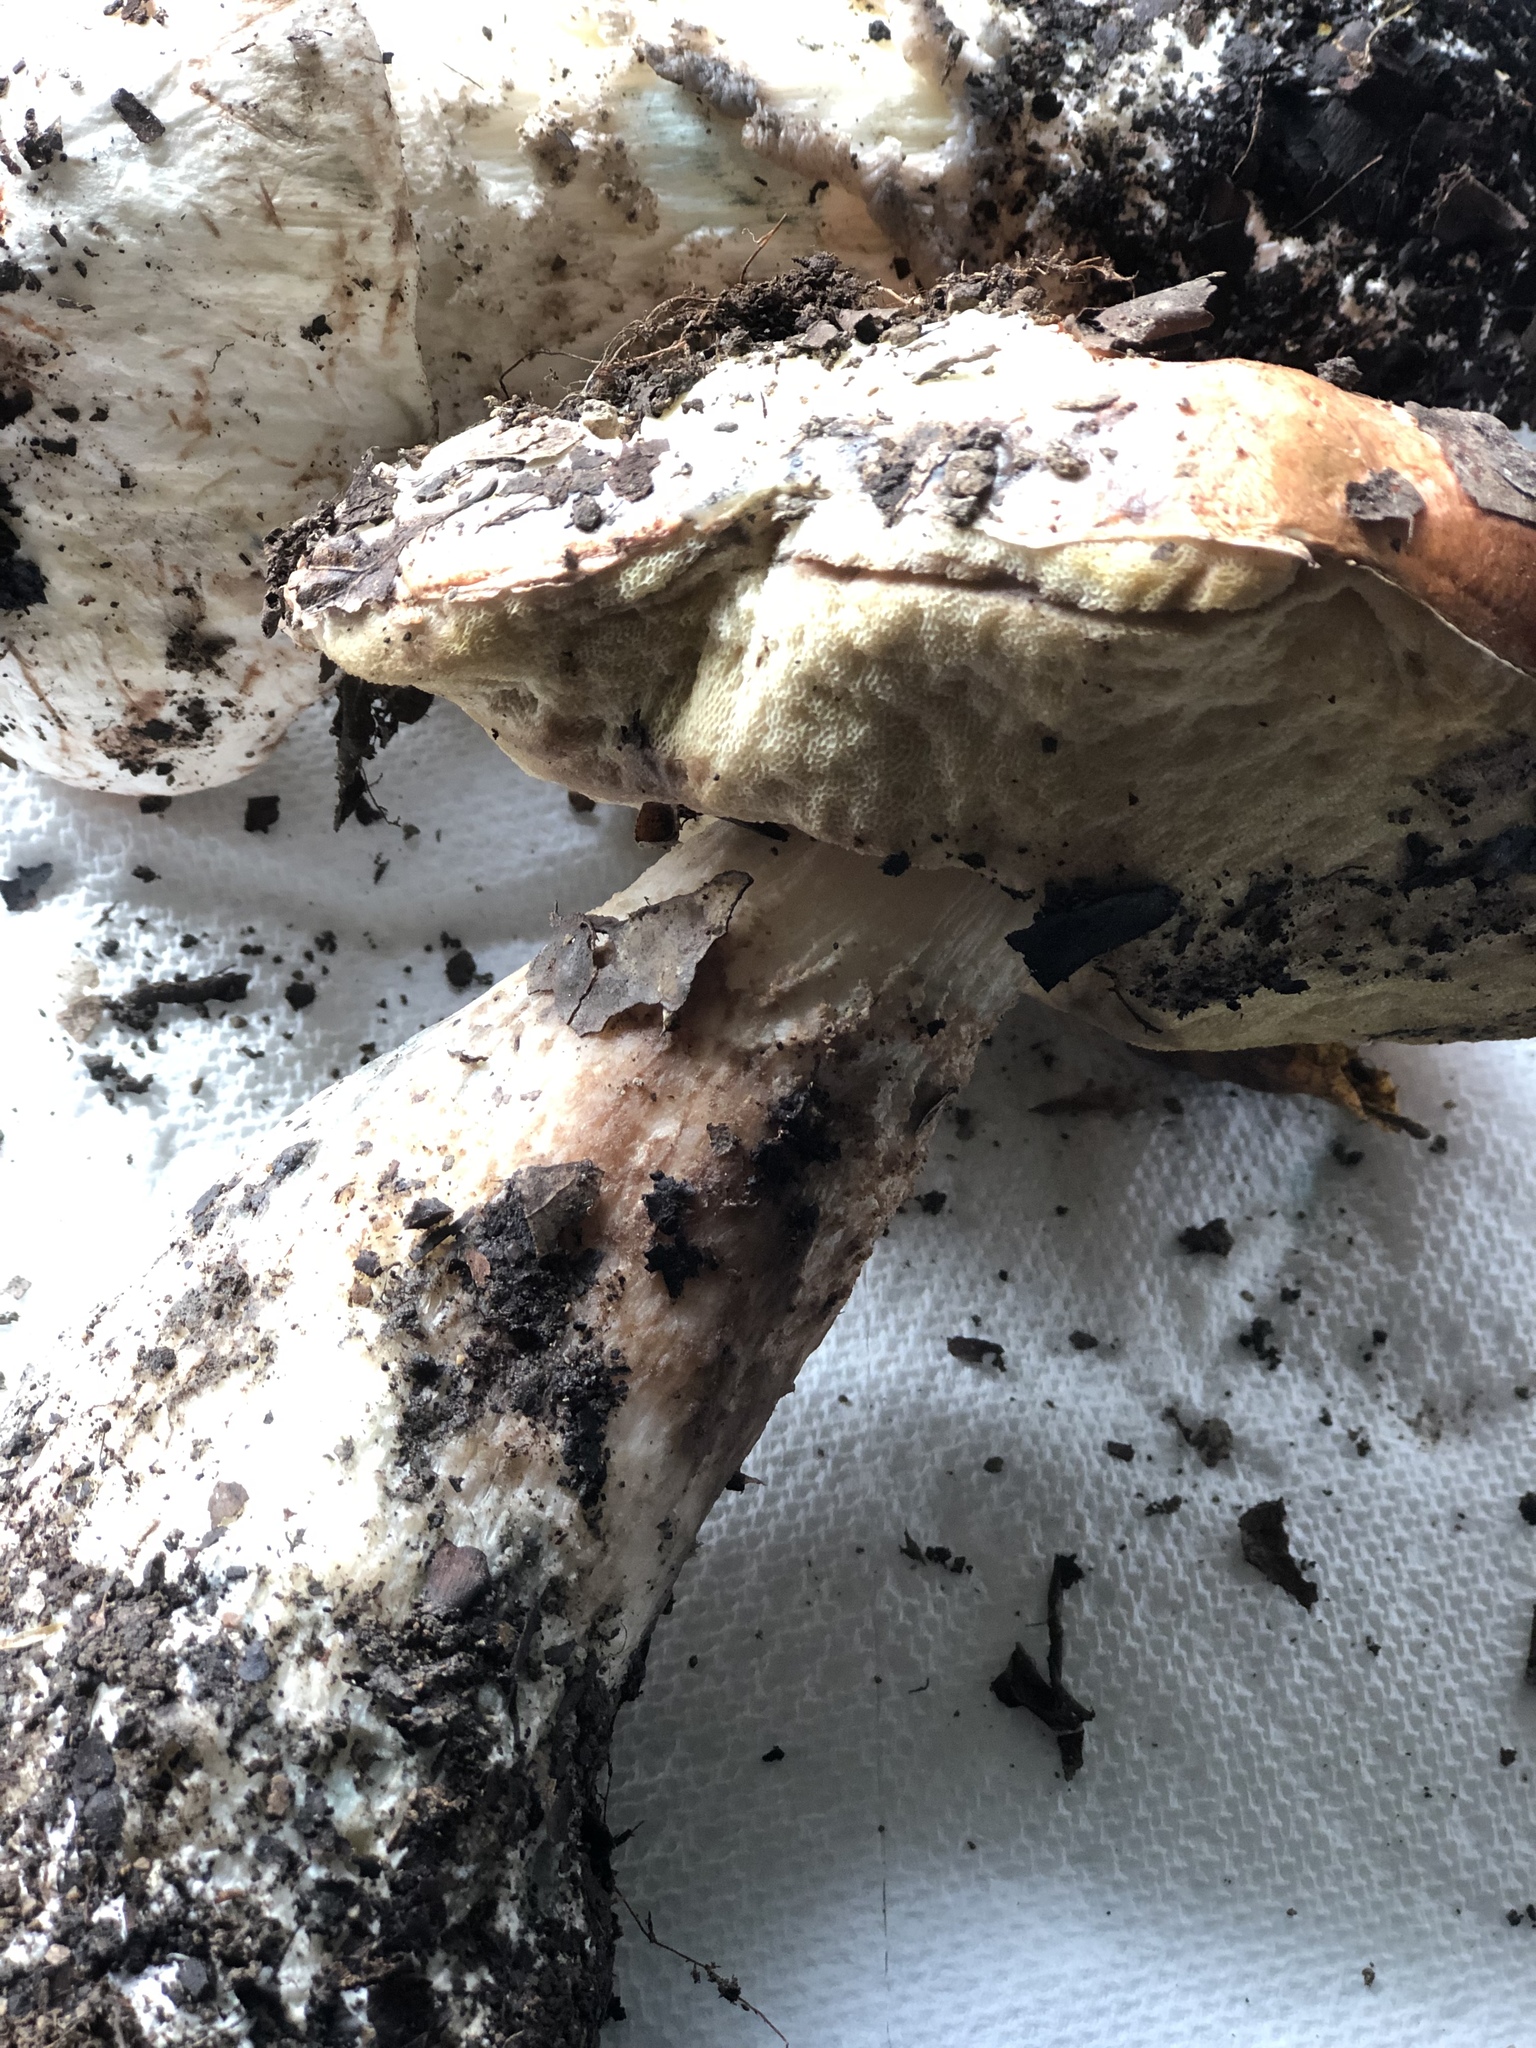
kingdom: Fungi
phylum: Basidiomycota
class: Agaricomycetes
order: Boletales
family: Boletaceae
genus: Leccinum
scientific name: Leccinum manzanitae
